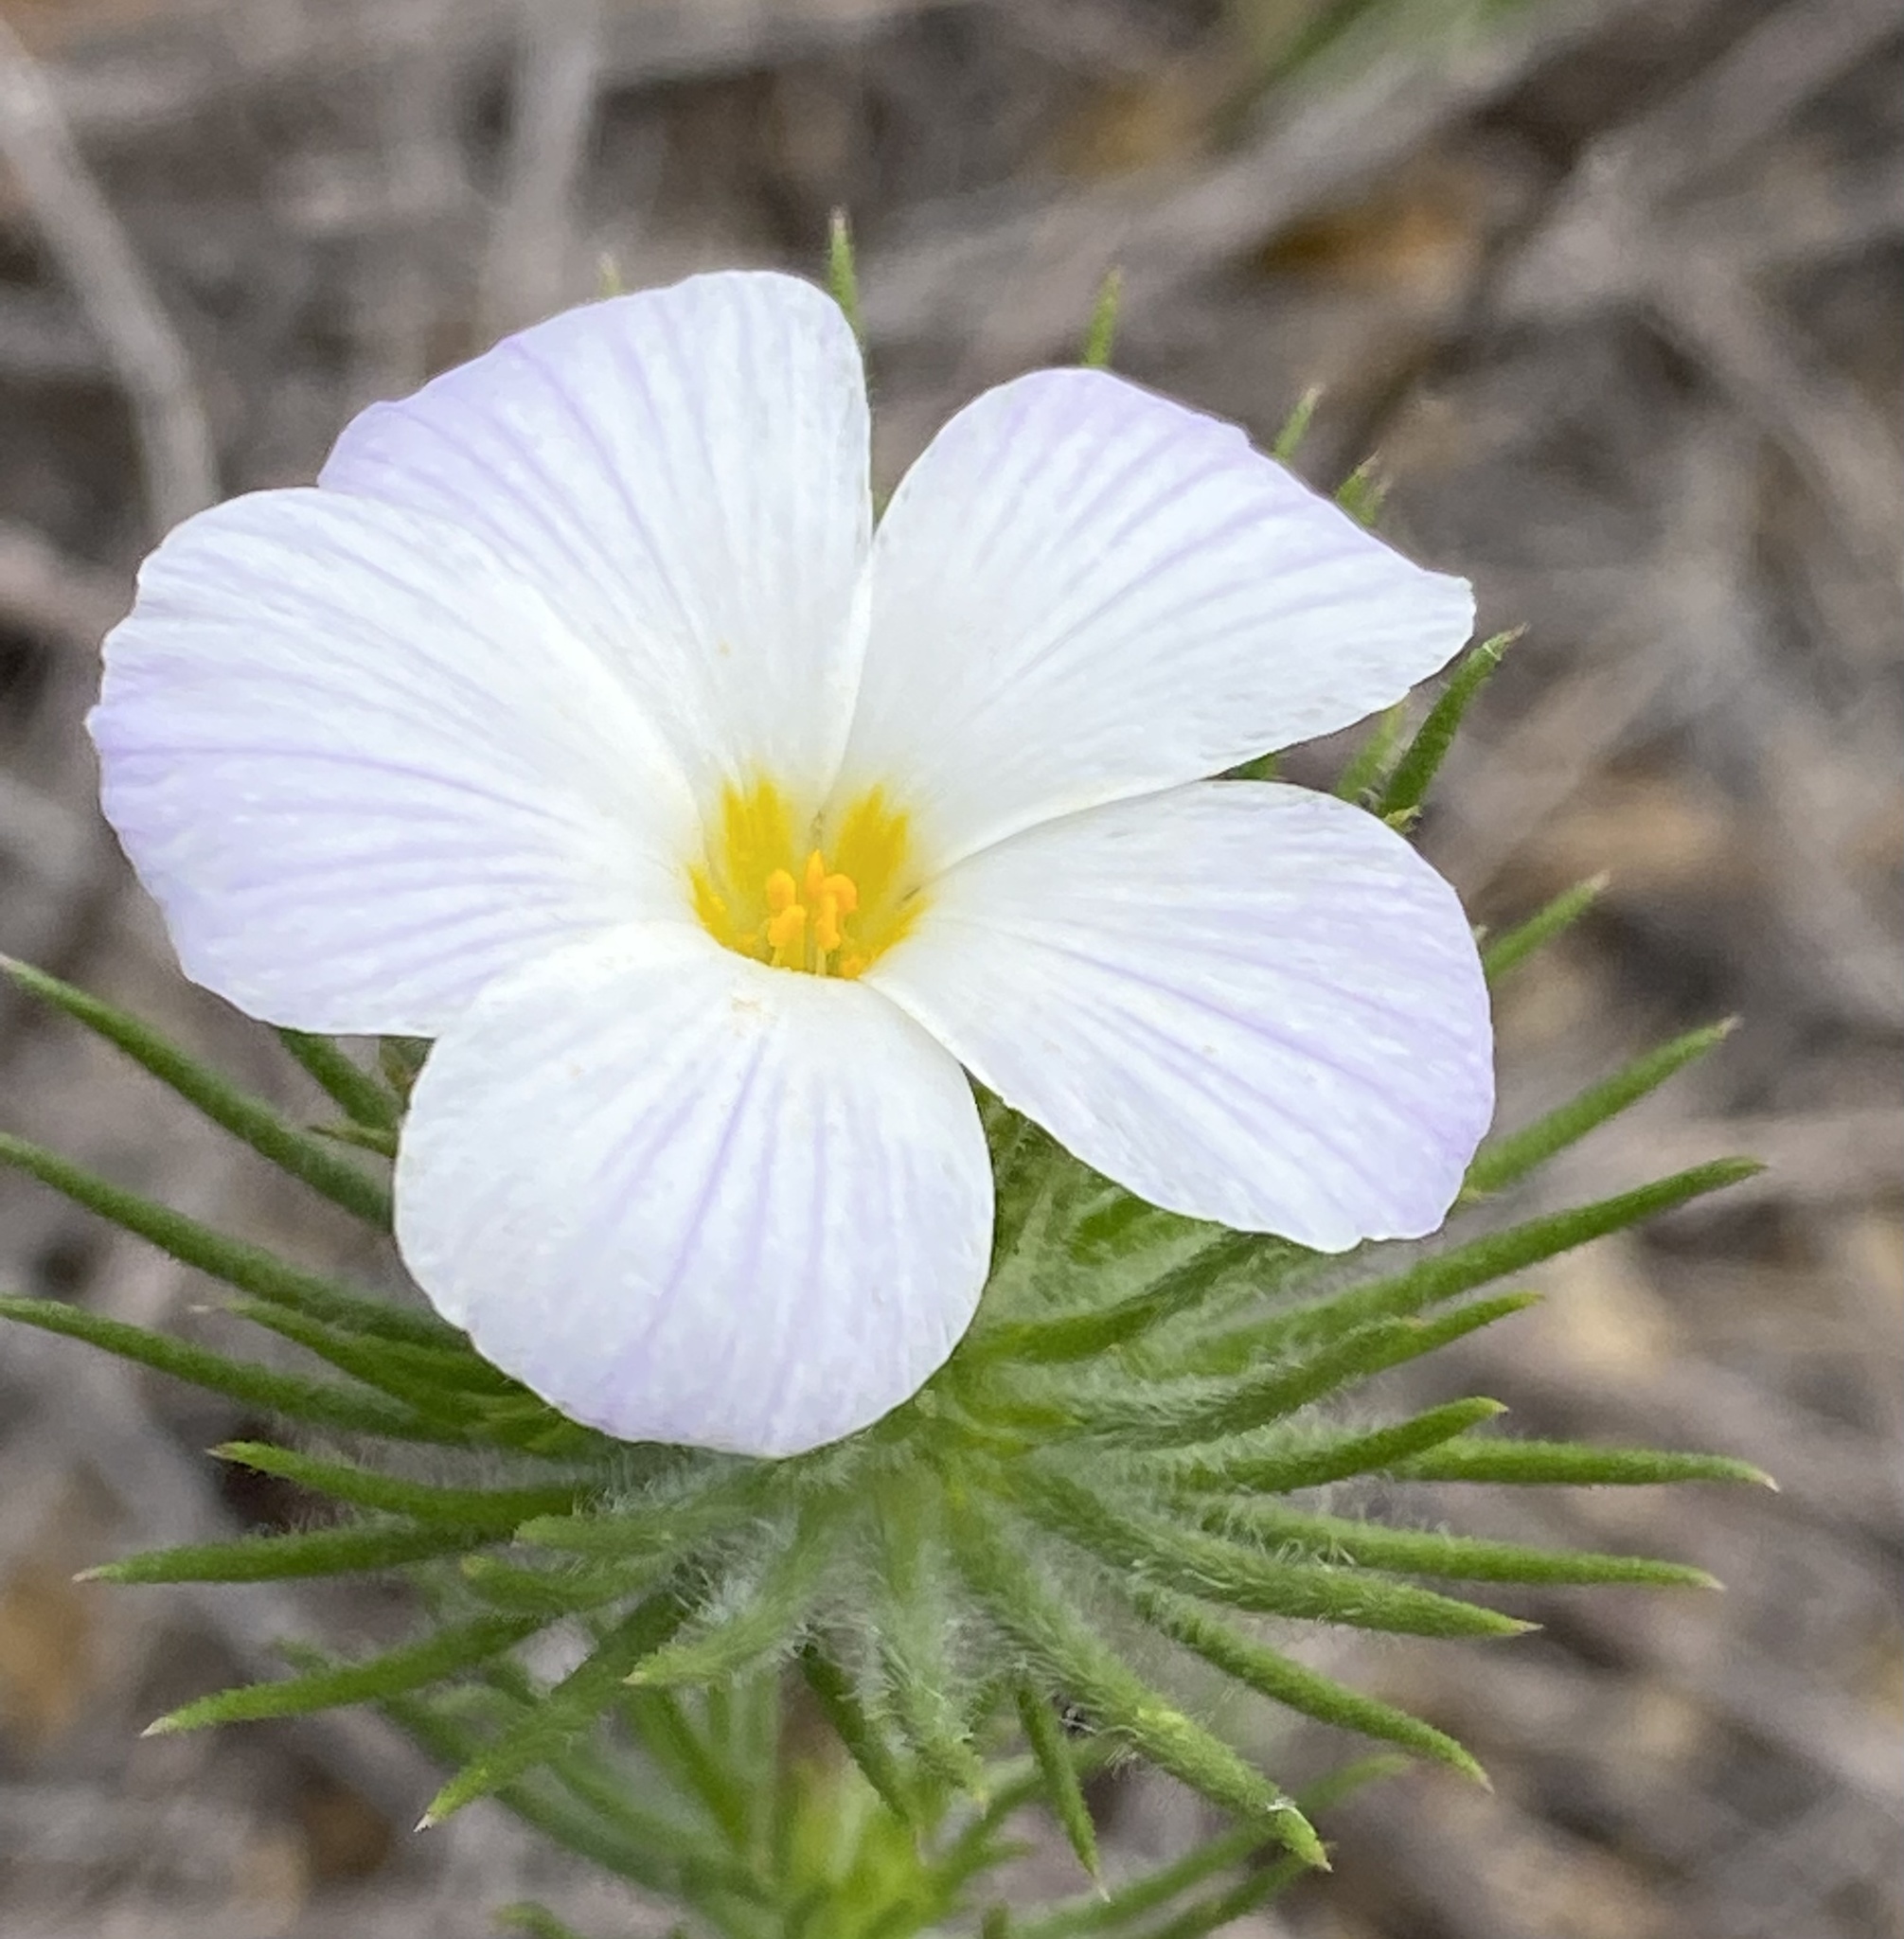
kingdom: Plantae
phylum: Tracheophyta
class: Magnoliopsida
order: Ericales
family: Polemoniaceae
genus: Leptosiphon
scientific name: Leptosiphon grandiflorus
